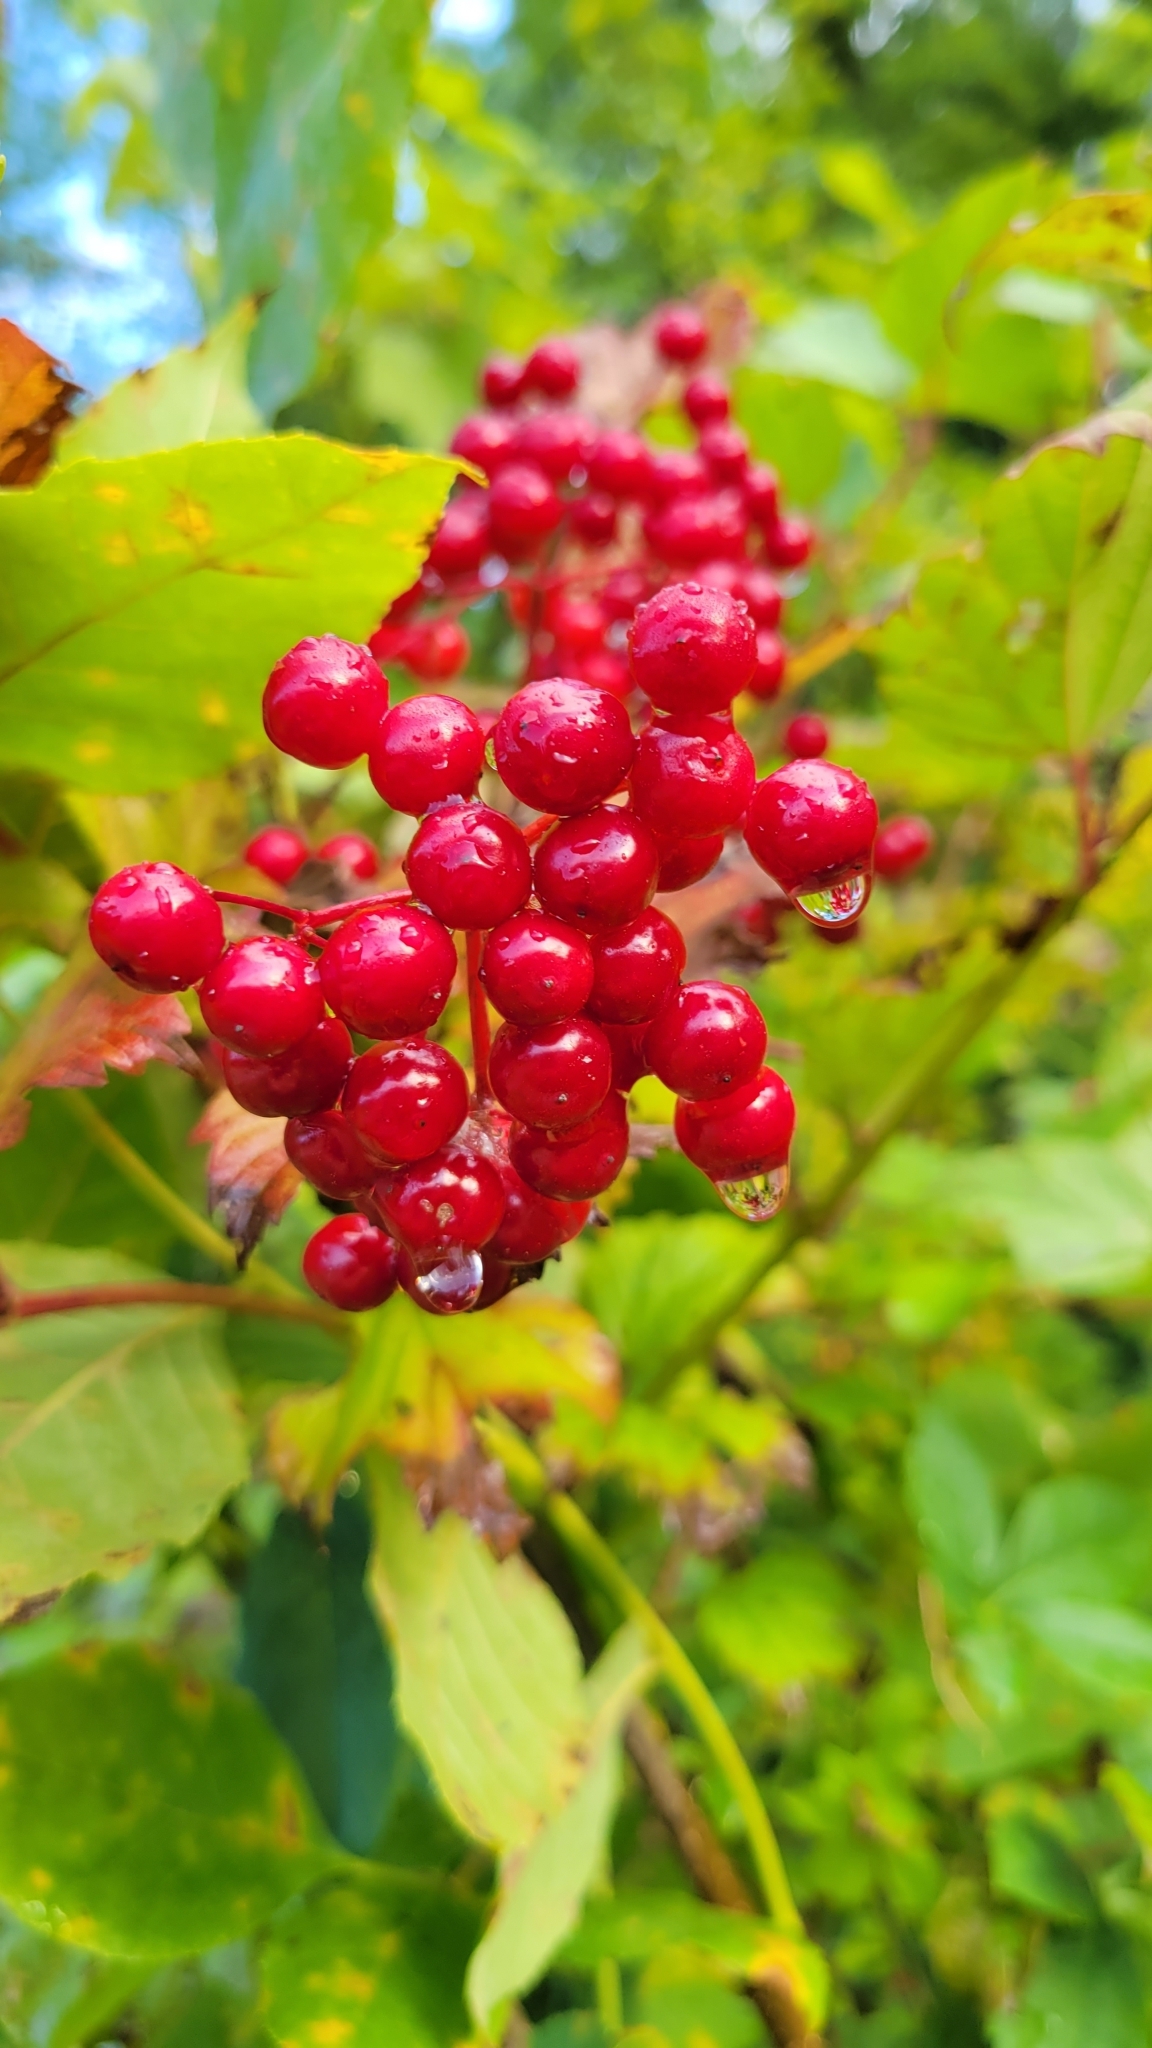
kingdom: Plantae
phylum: Tracheophyta
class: Magnoliopsida
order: Dipsacales
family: Viburnaceae
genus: Sambucus
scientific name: Sambucus racemosa
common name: Red-berried elder
